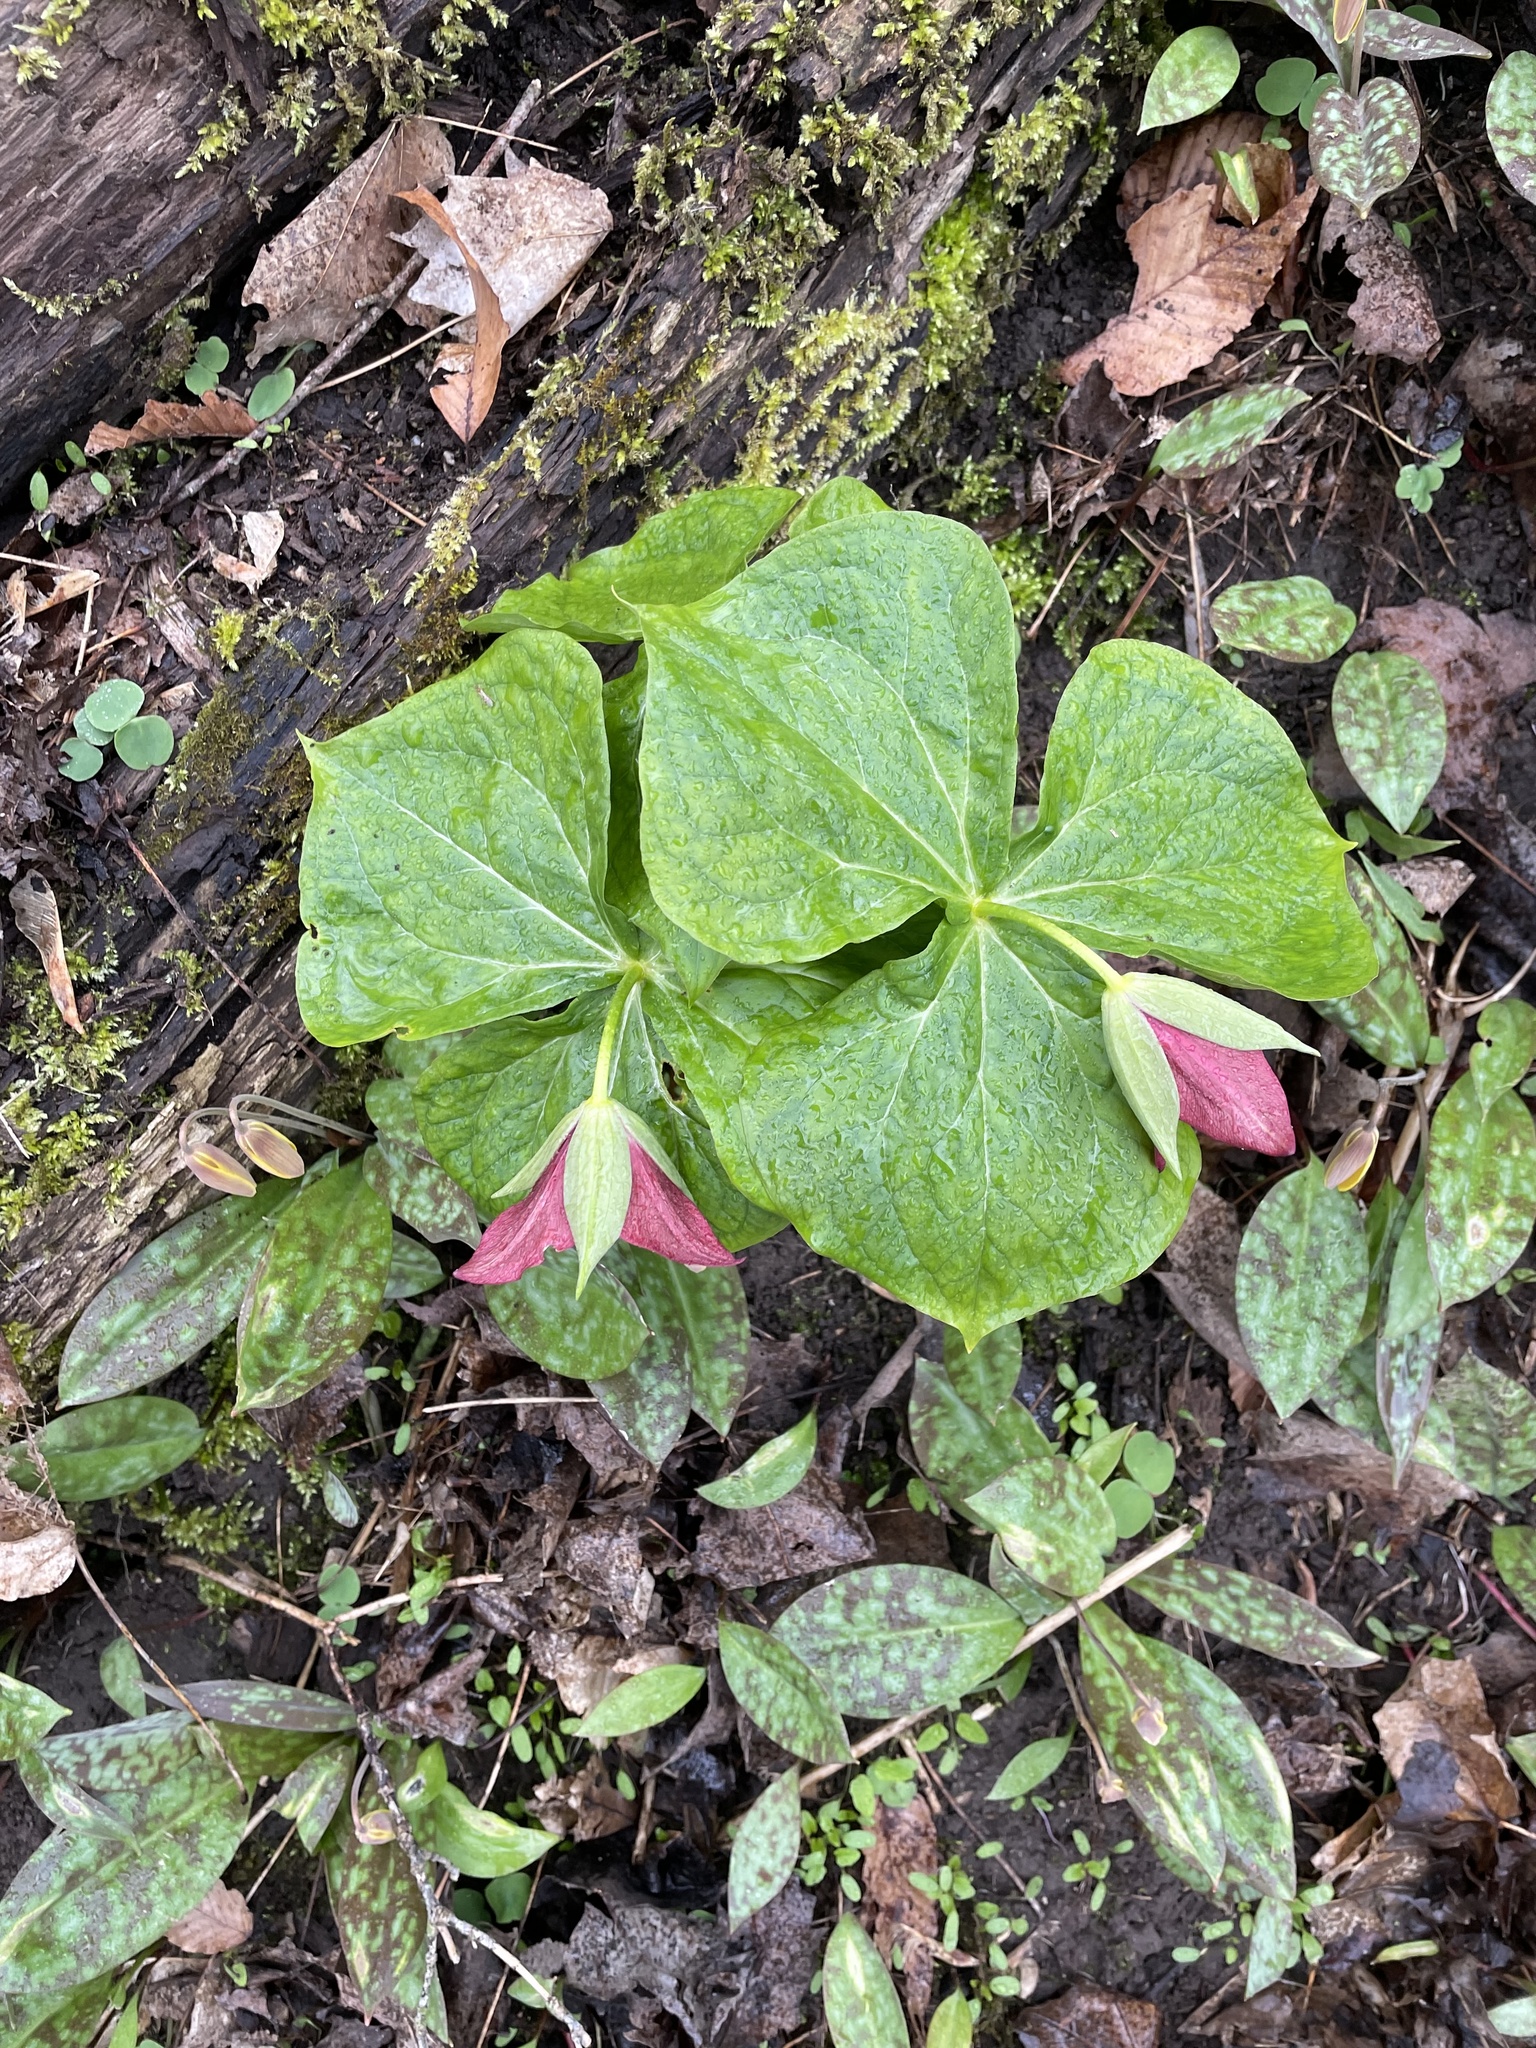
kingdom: Plantae
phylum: Tracheophyta
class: Liliopsida
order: Liliales
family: Melanthiaceae
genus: Trillium
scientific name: Trillium erectum
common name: Purple trillium
